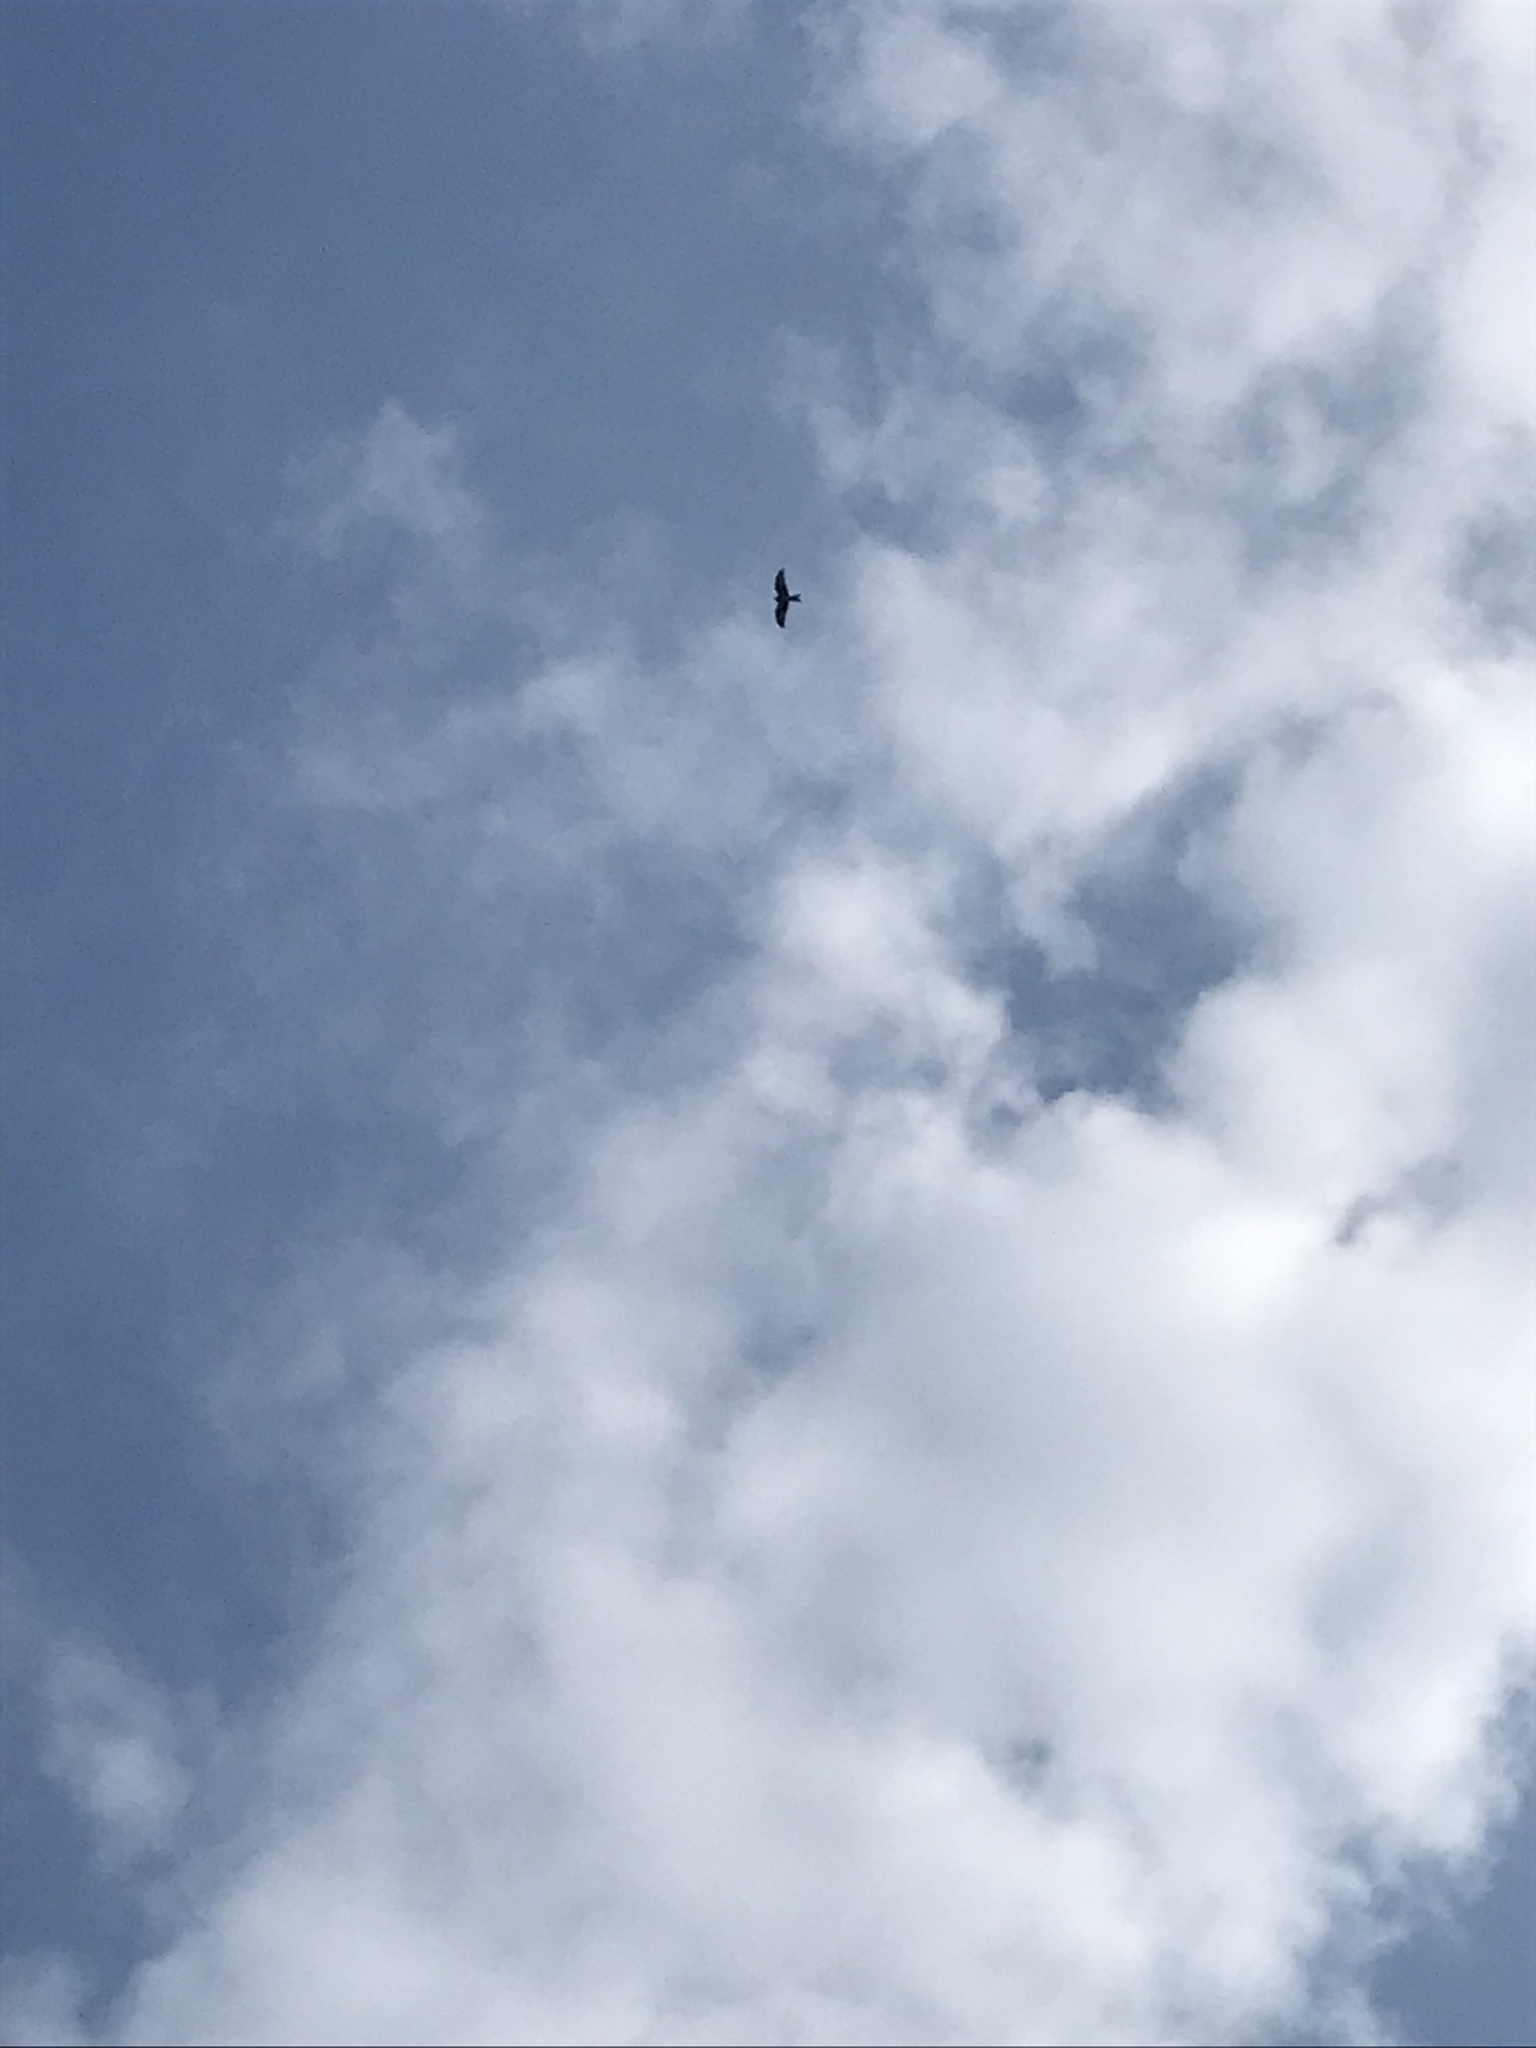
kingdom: Animalia
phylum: Chordata
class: Aves
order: Accipitriformes
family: Accipitridae
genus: Milvus
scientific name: Milvus milvus
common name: Red kite
